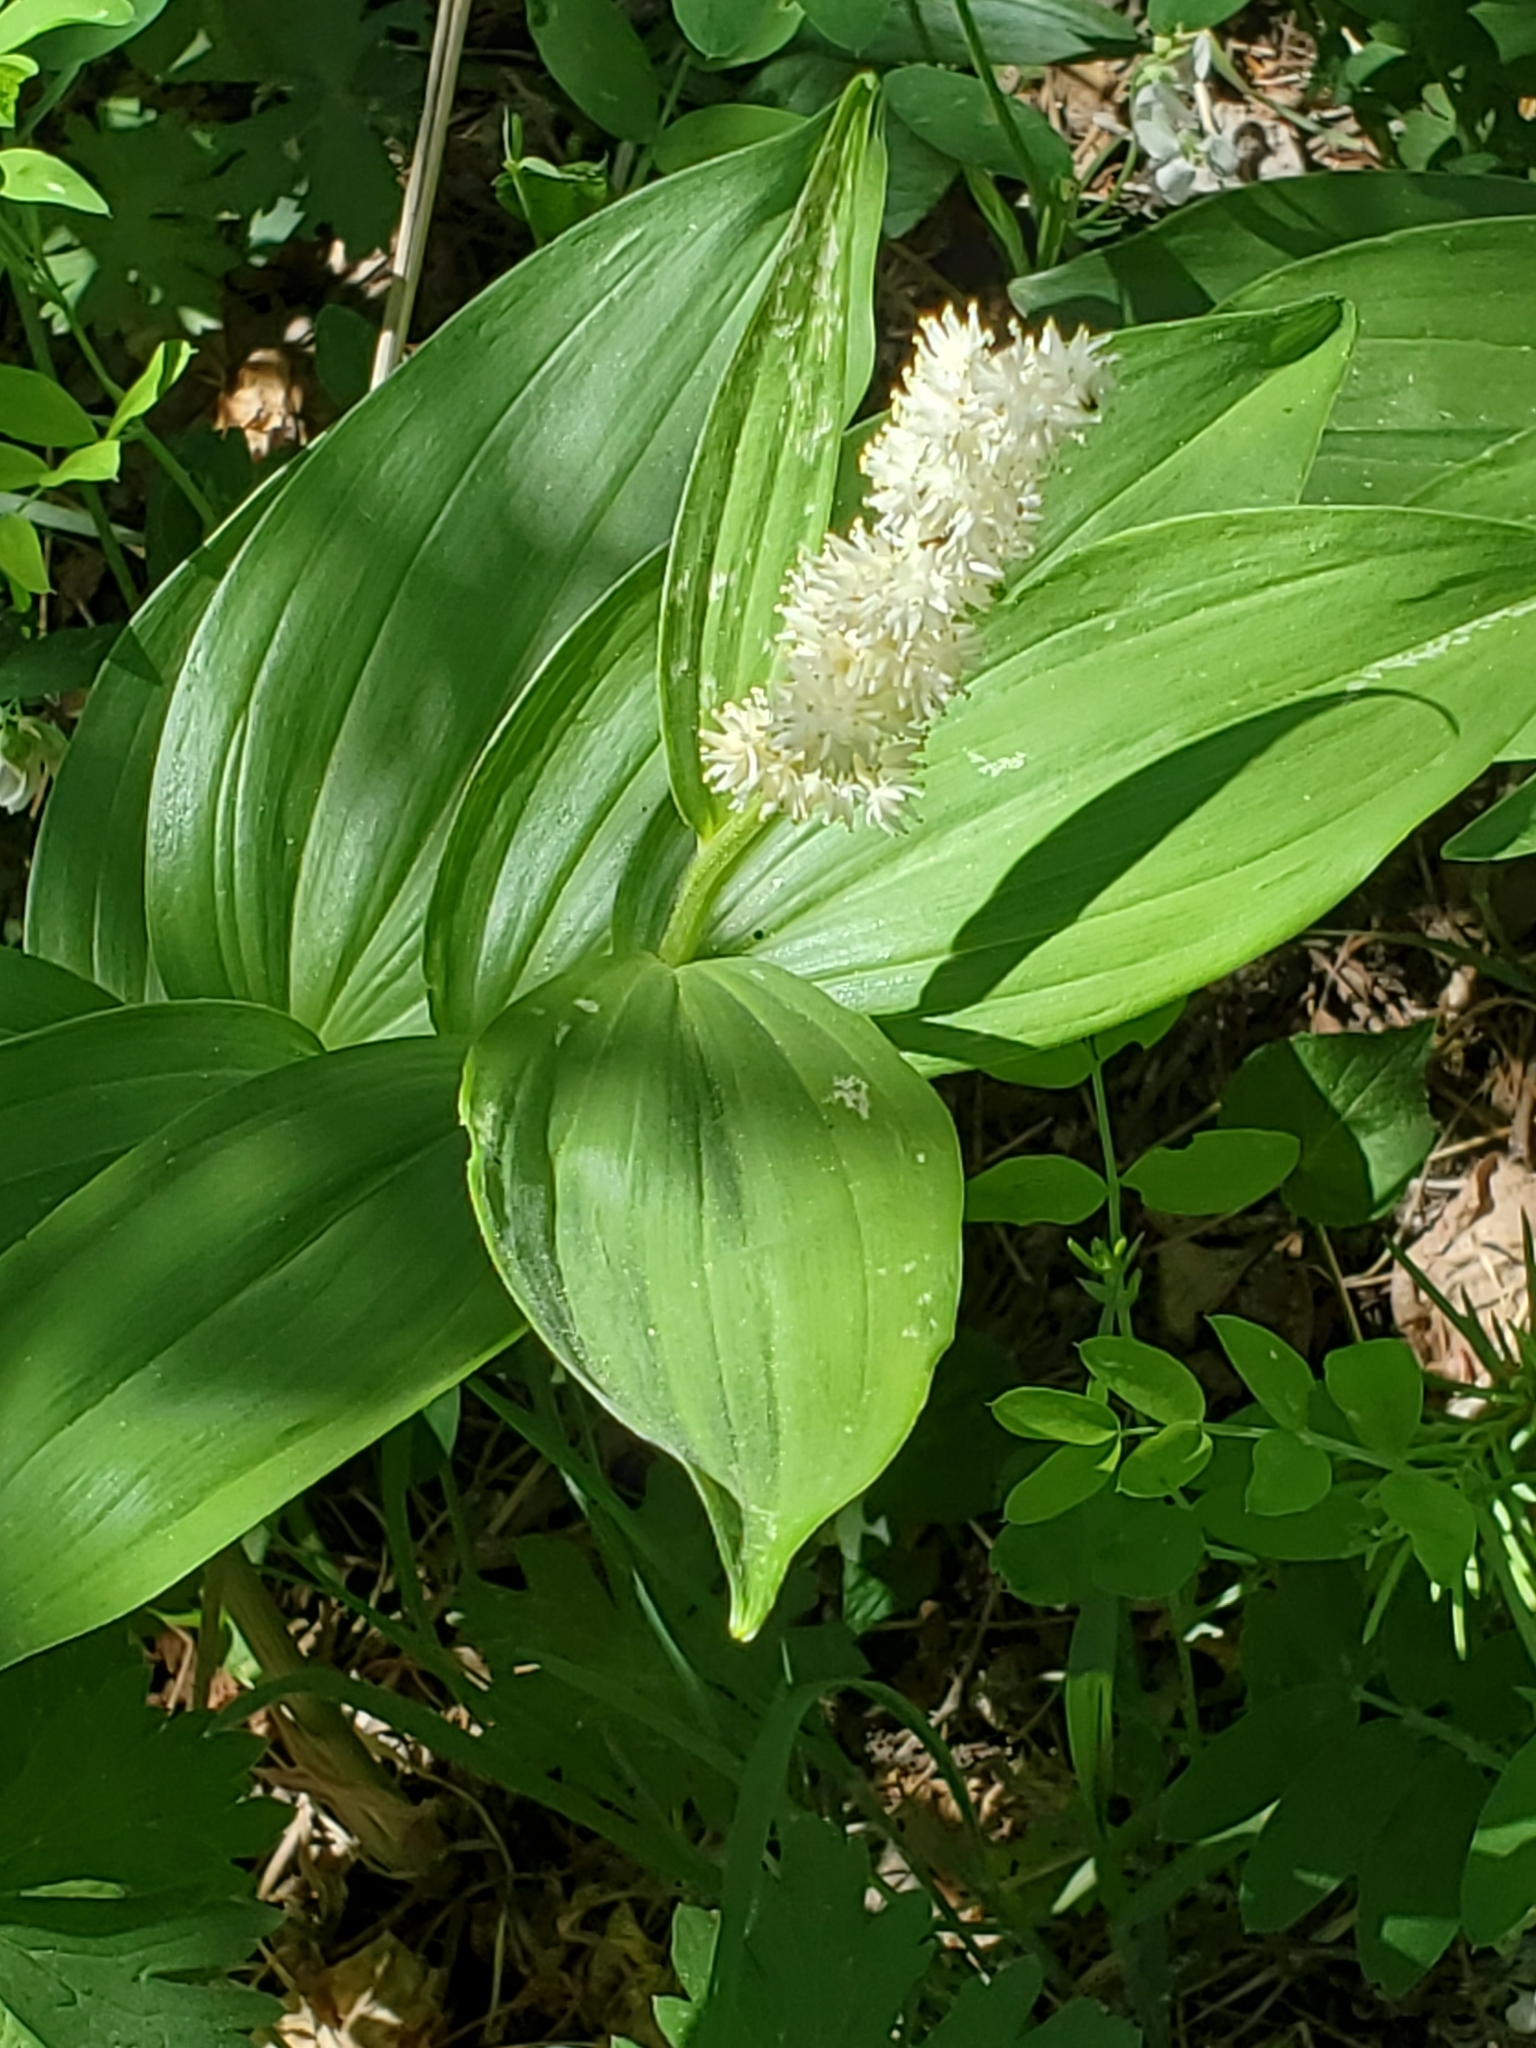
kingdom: Plantae
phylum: Tracheophyta
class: Liliopsida
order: Asparagales
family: Asparagaceae
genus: Maianthemum
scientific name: Maianthemum racemosum
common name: False spikenard
